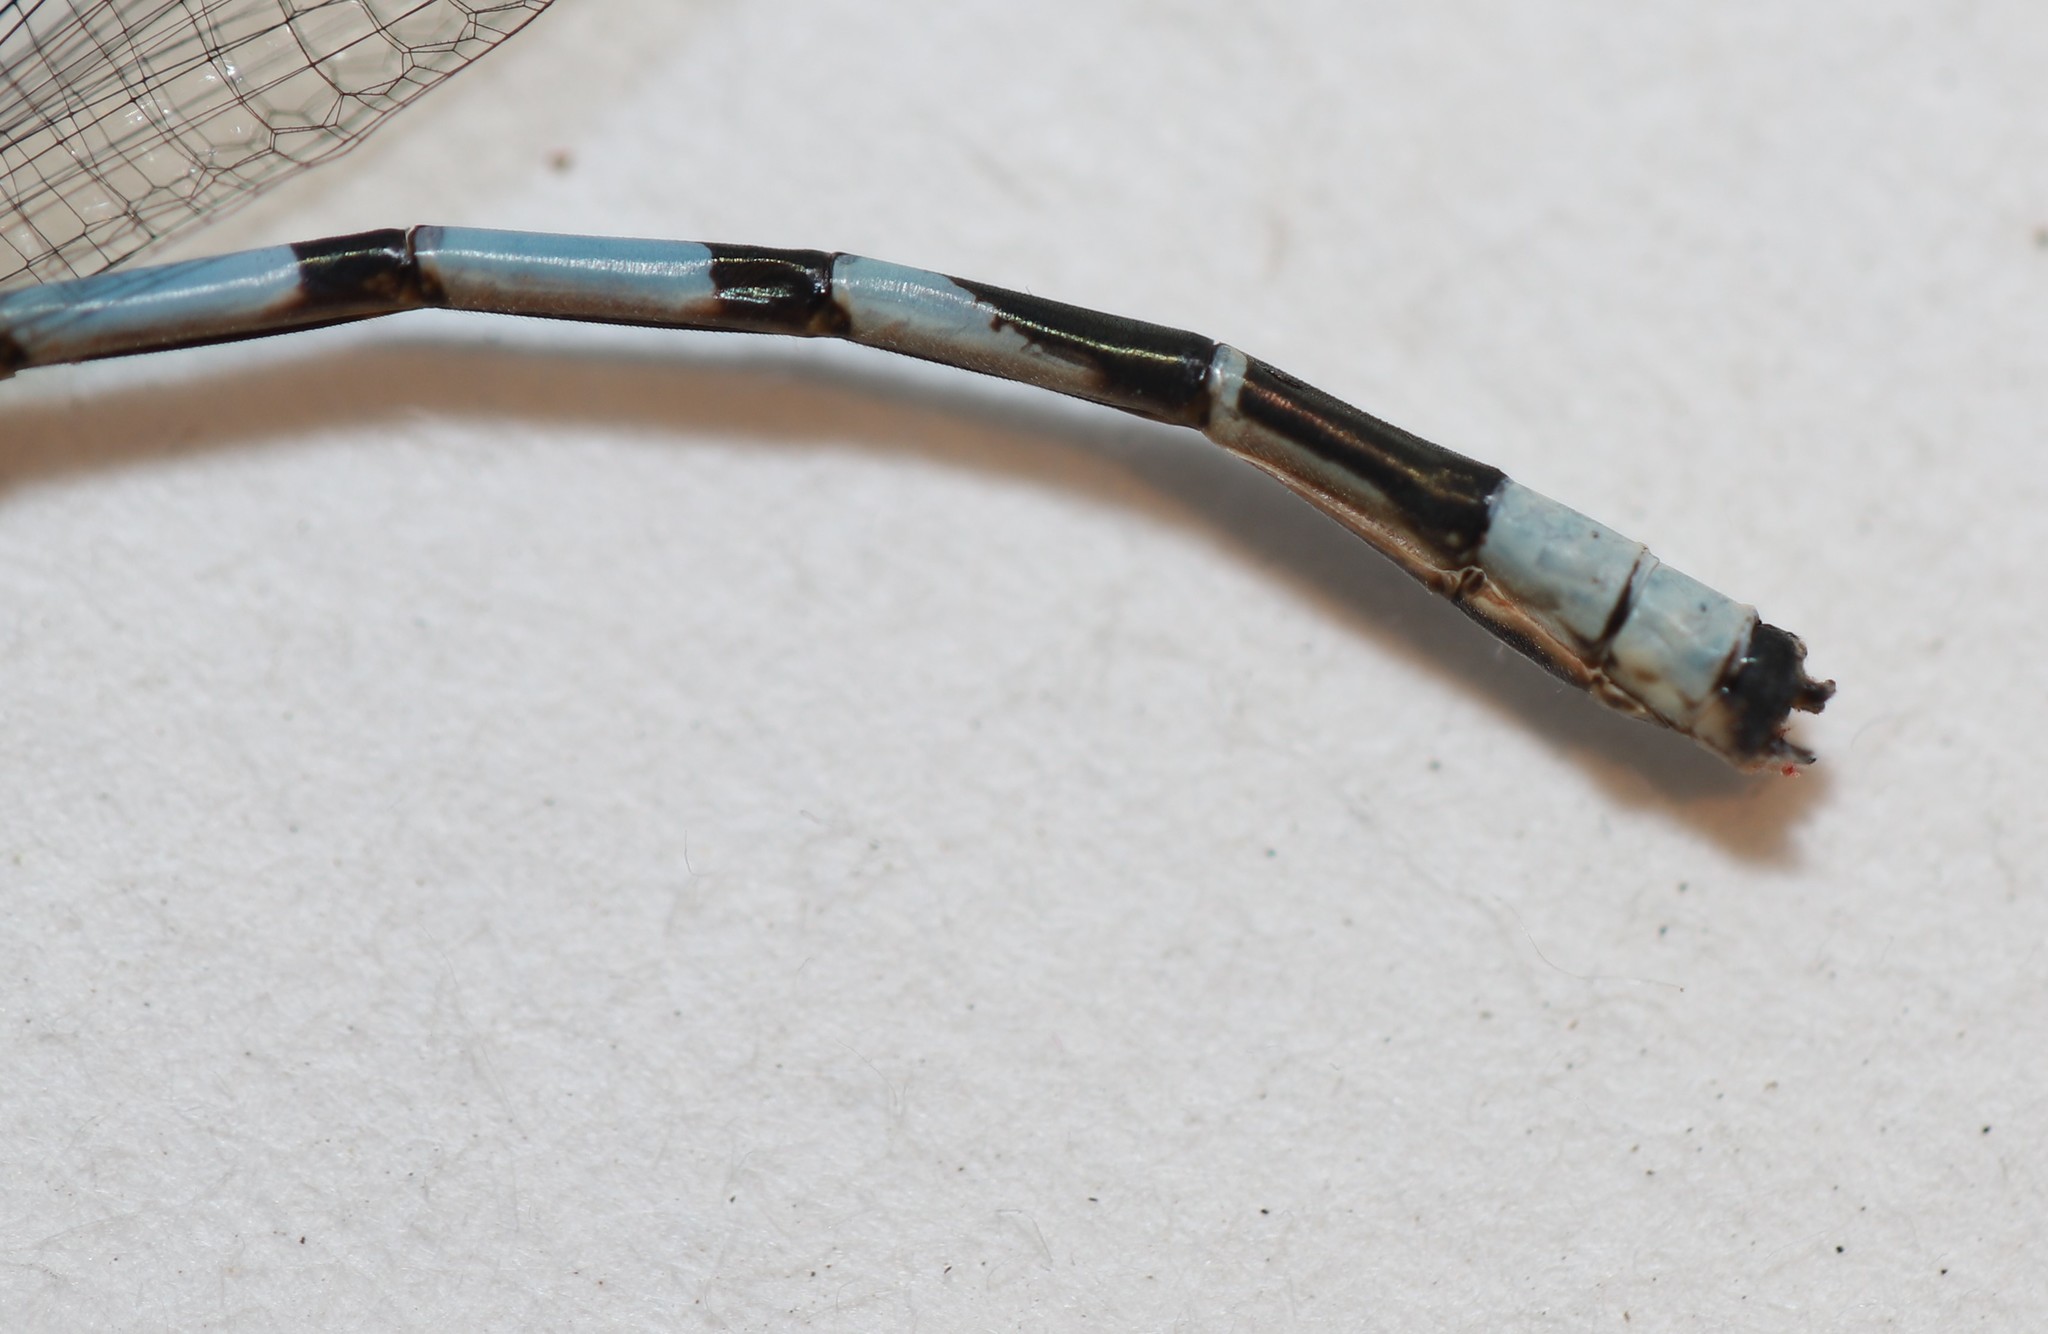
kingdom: Animalia
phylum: Arthropoda
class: Insecta
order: Odonata
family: Coenagrionidae
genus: Enallagma
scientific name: Enallagma vernale
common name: Vernal bluet
